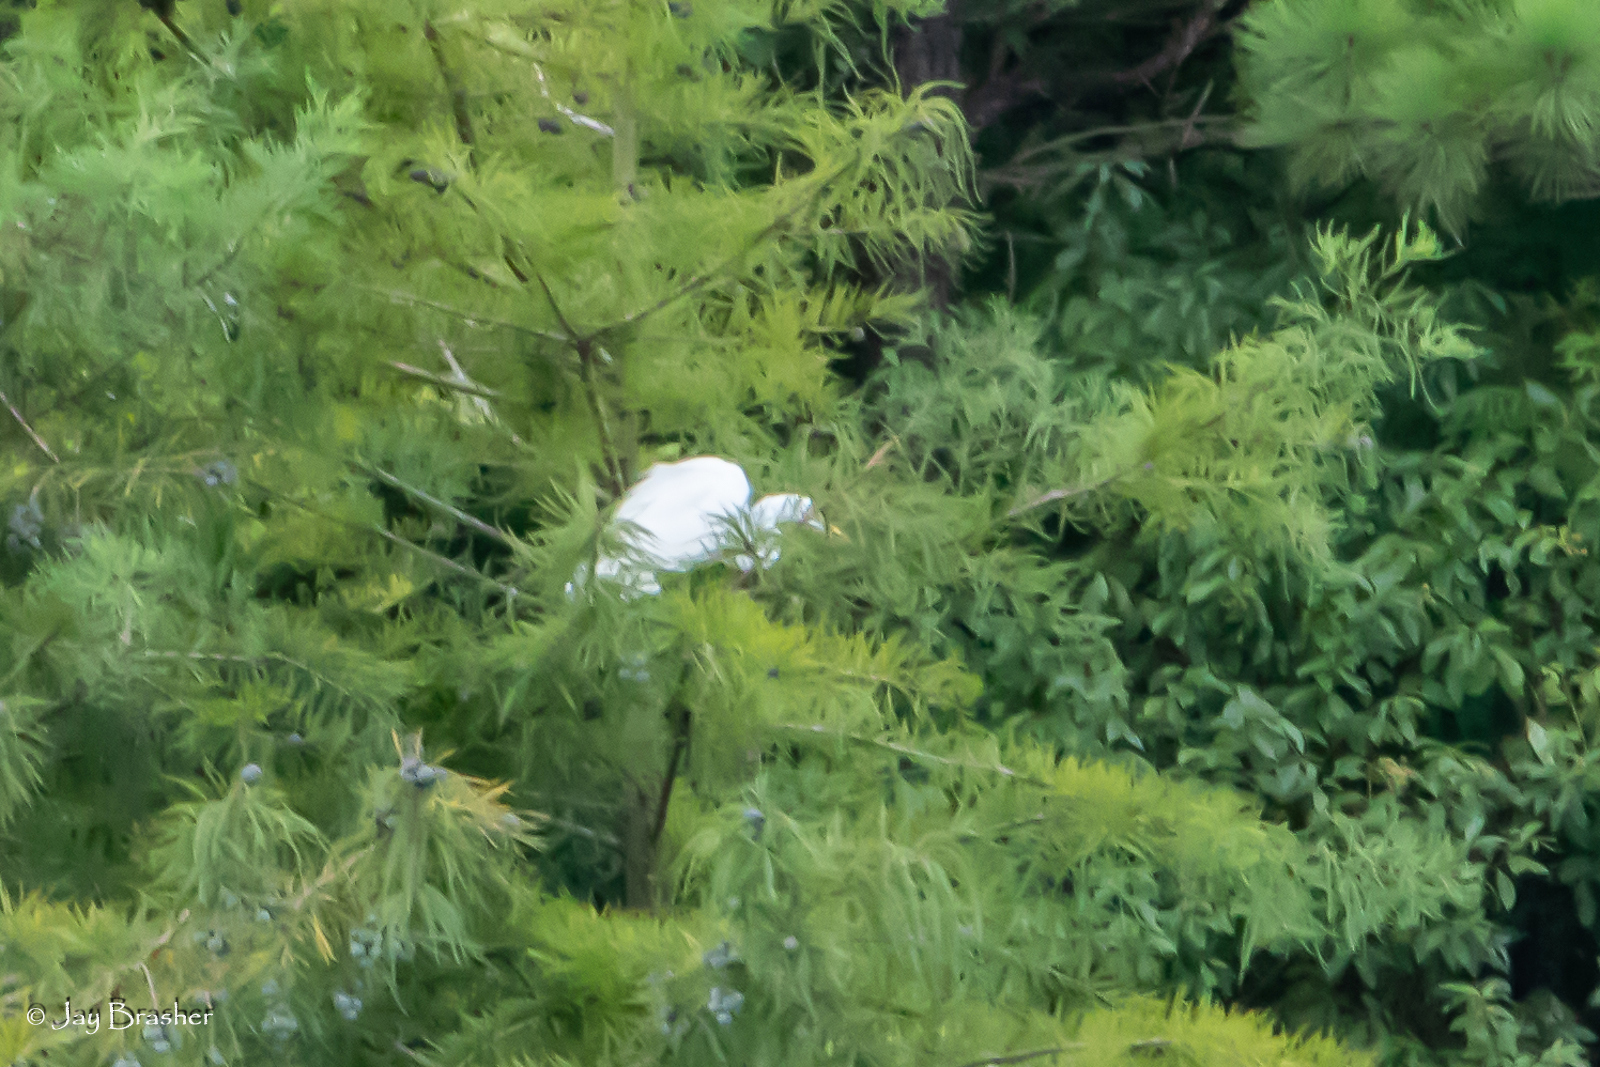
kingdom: Animalia
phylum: Chordata
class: Aves
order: Pelecaniformes
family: Ardeidae
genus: Ardea
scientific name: Ardea alba
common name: Great egret
